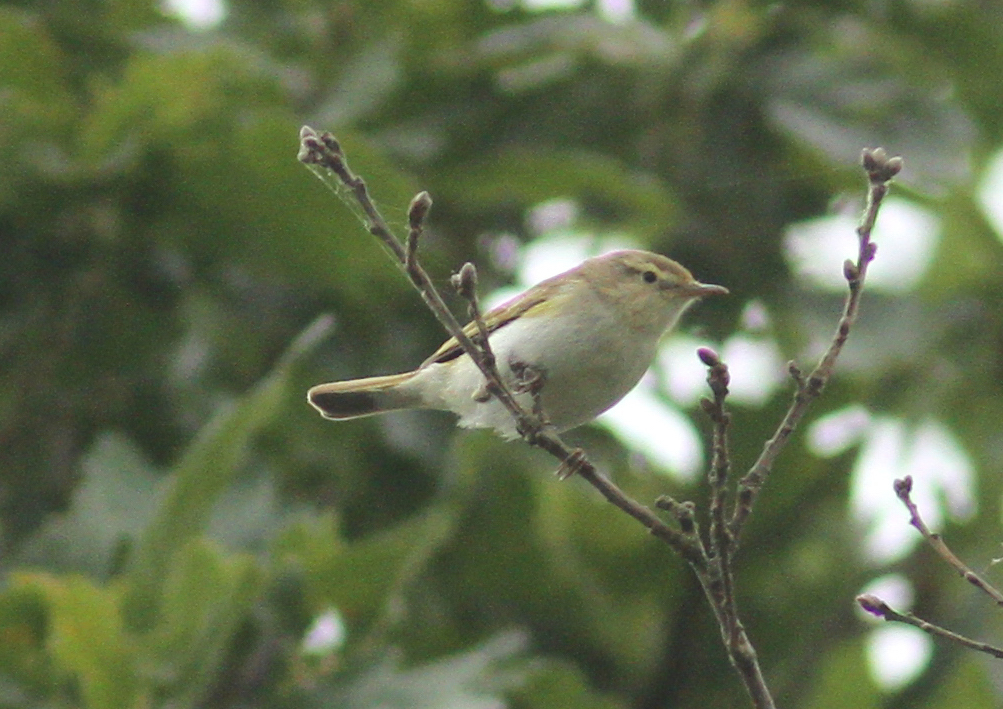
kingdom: Animalia
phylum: Chordata
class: Aves
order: Passeriformes
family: Phylloscopidae
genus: Phylloscopus
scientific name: Phylloscopus bonelli
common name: Western bonelli's warbler
